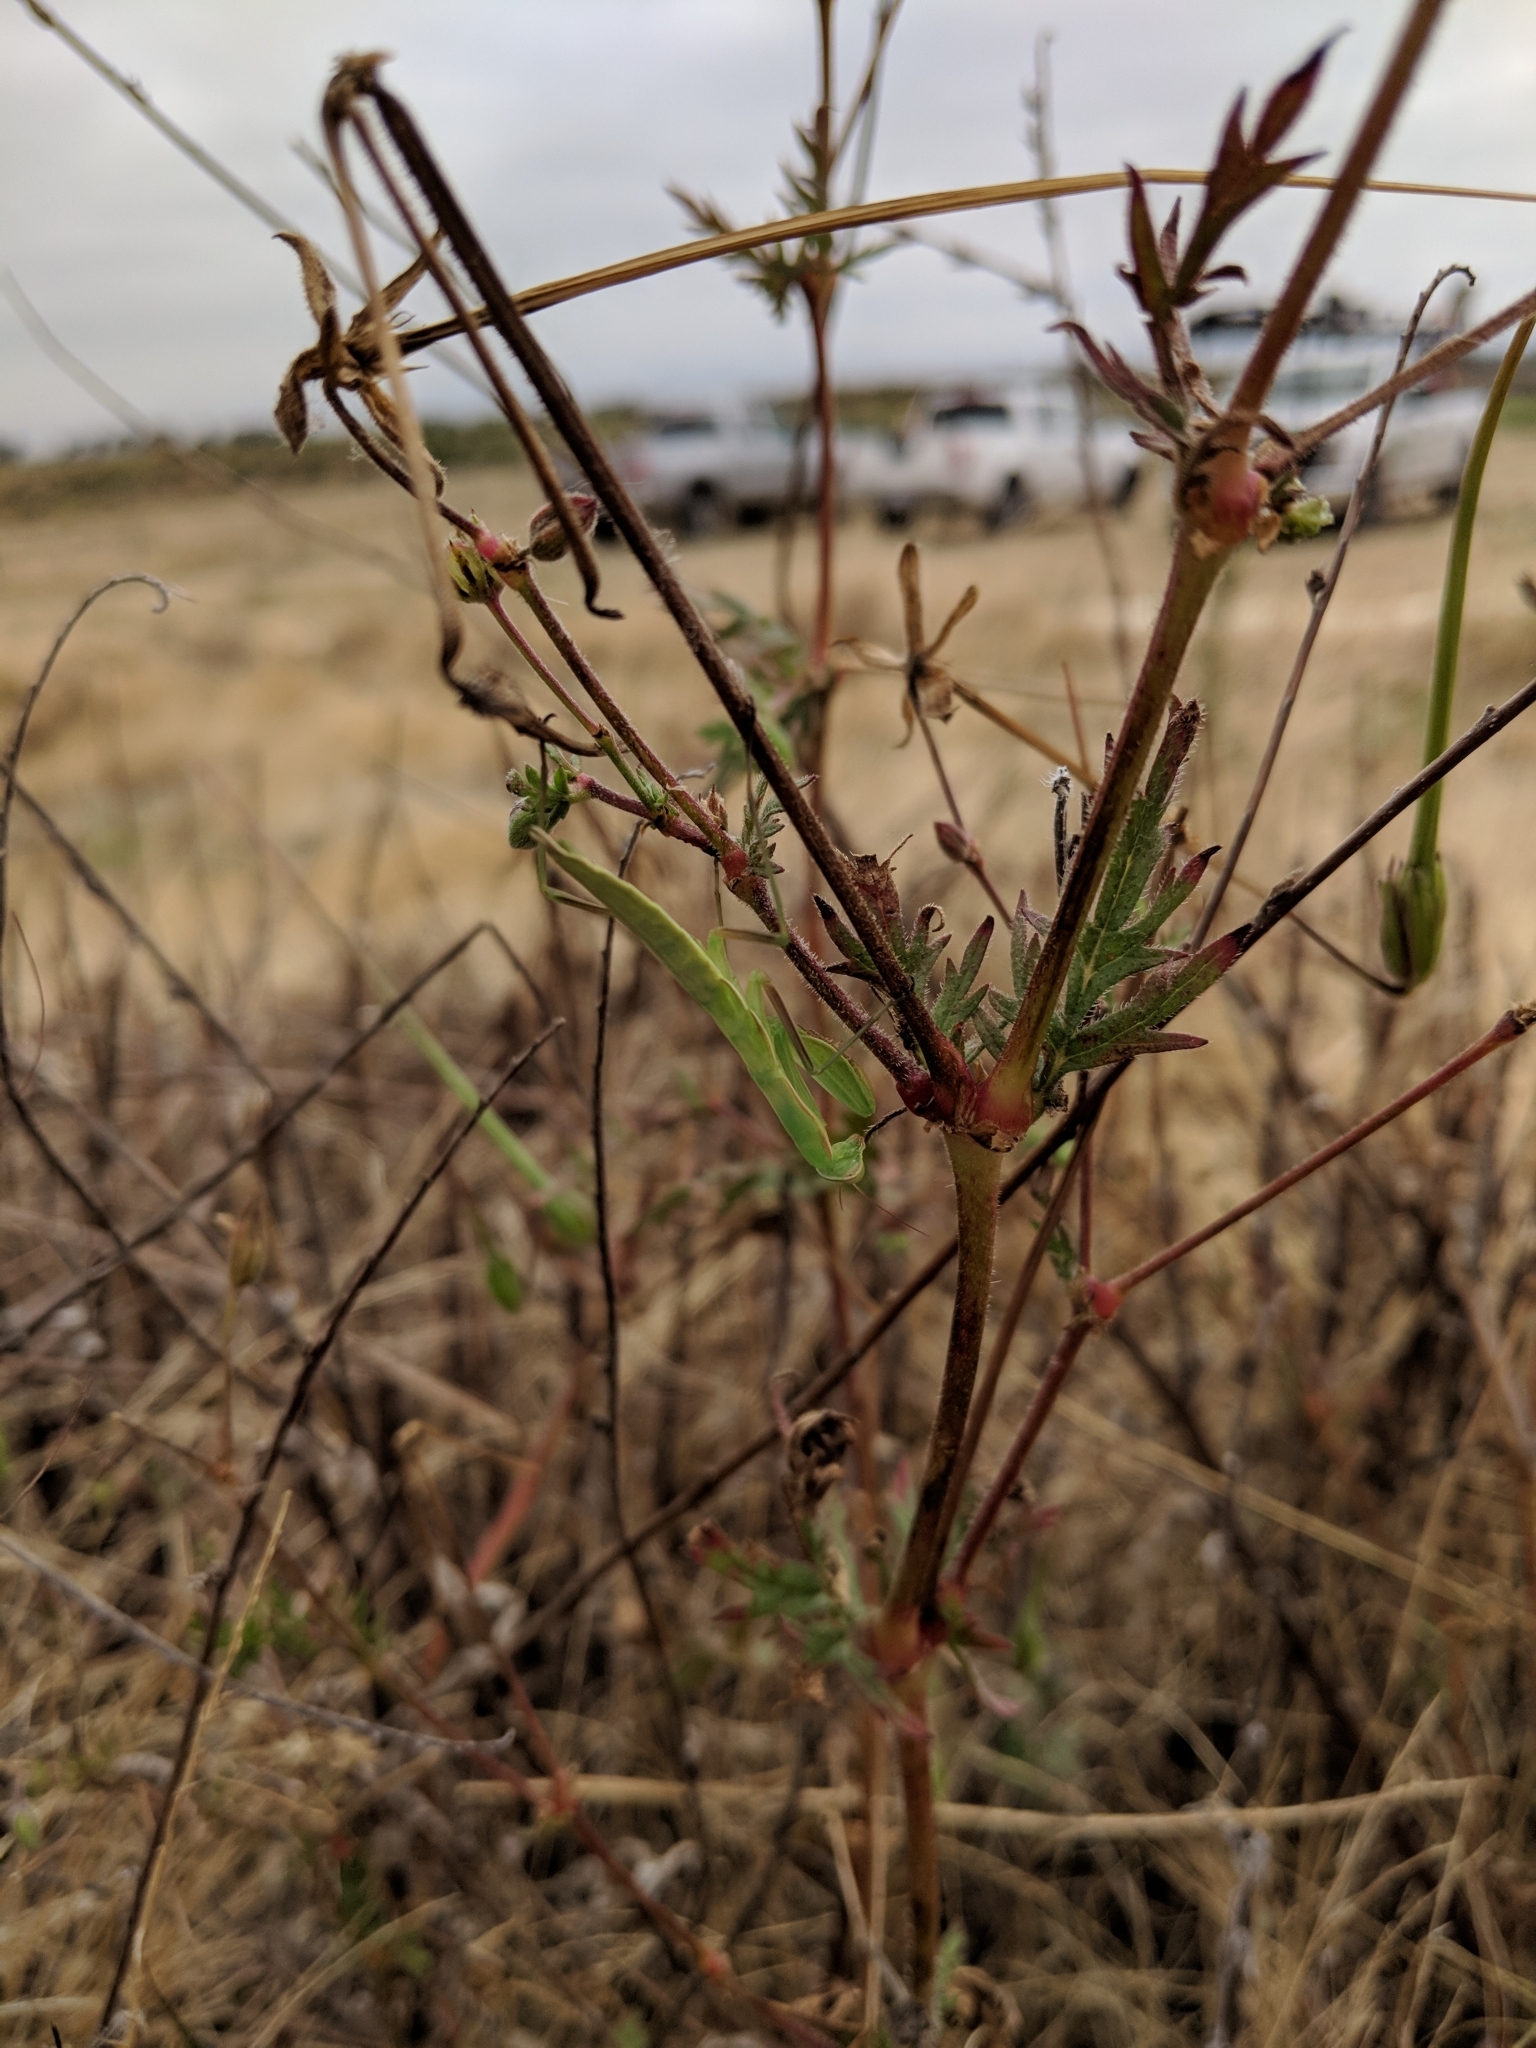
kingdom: Animalia
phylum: Arthropoda
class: Insecta
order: Mantodea
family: Mantidae
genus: Mantis
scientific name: Mantis religiosa
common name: Praying mantis
